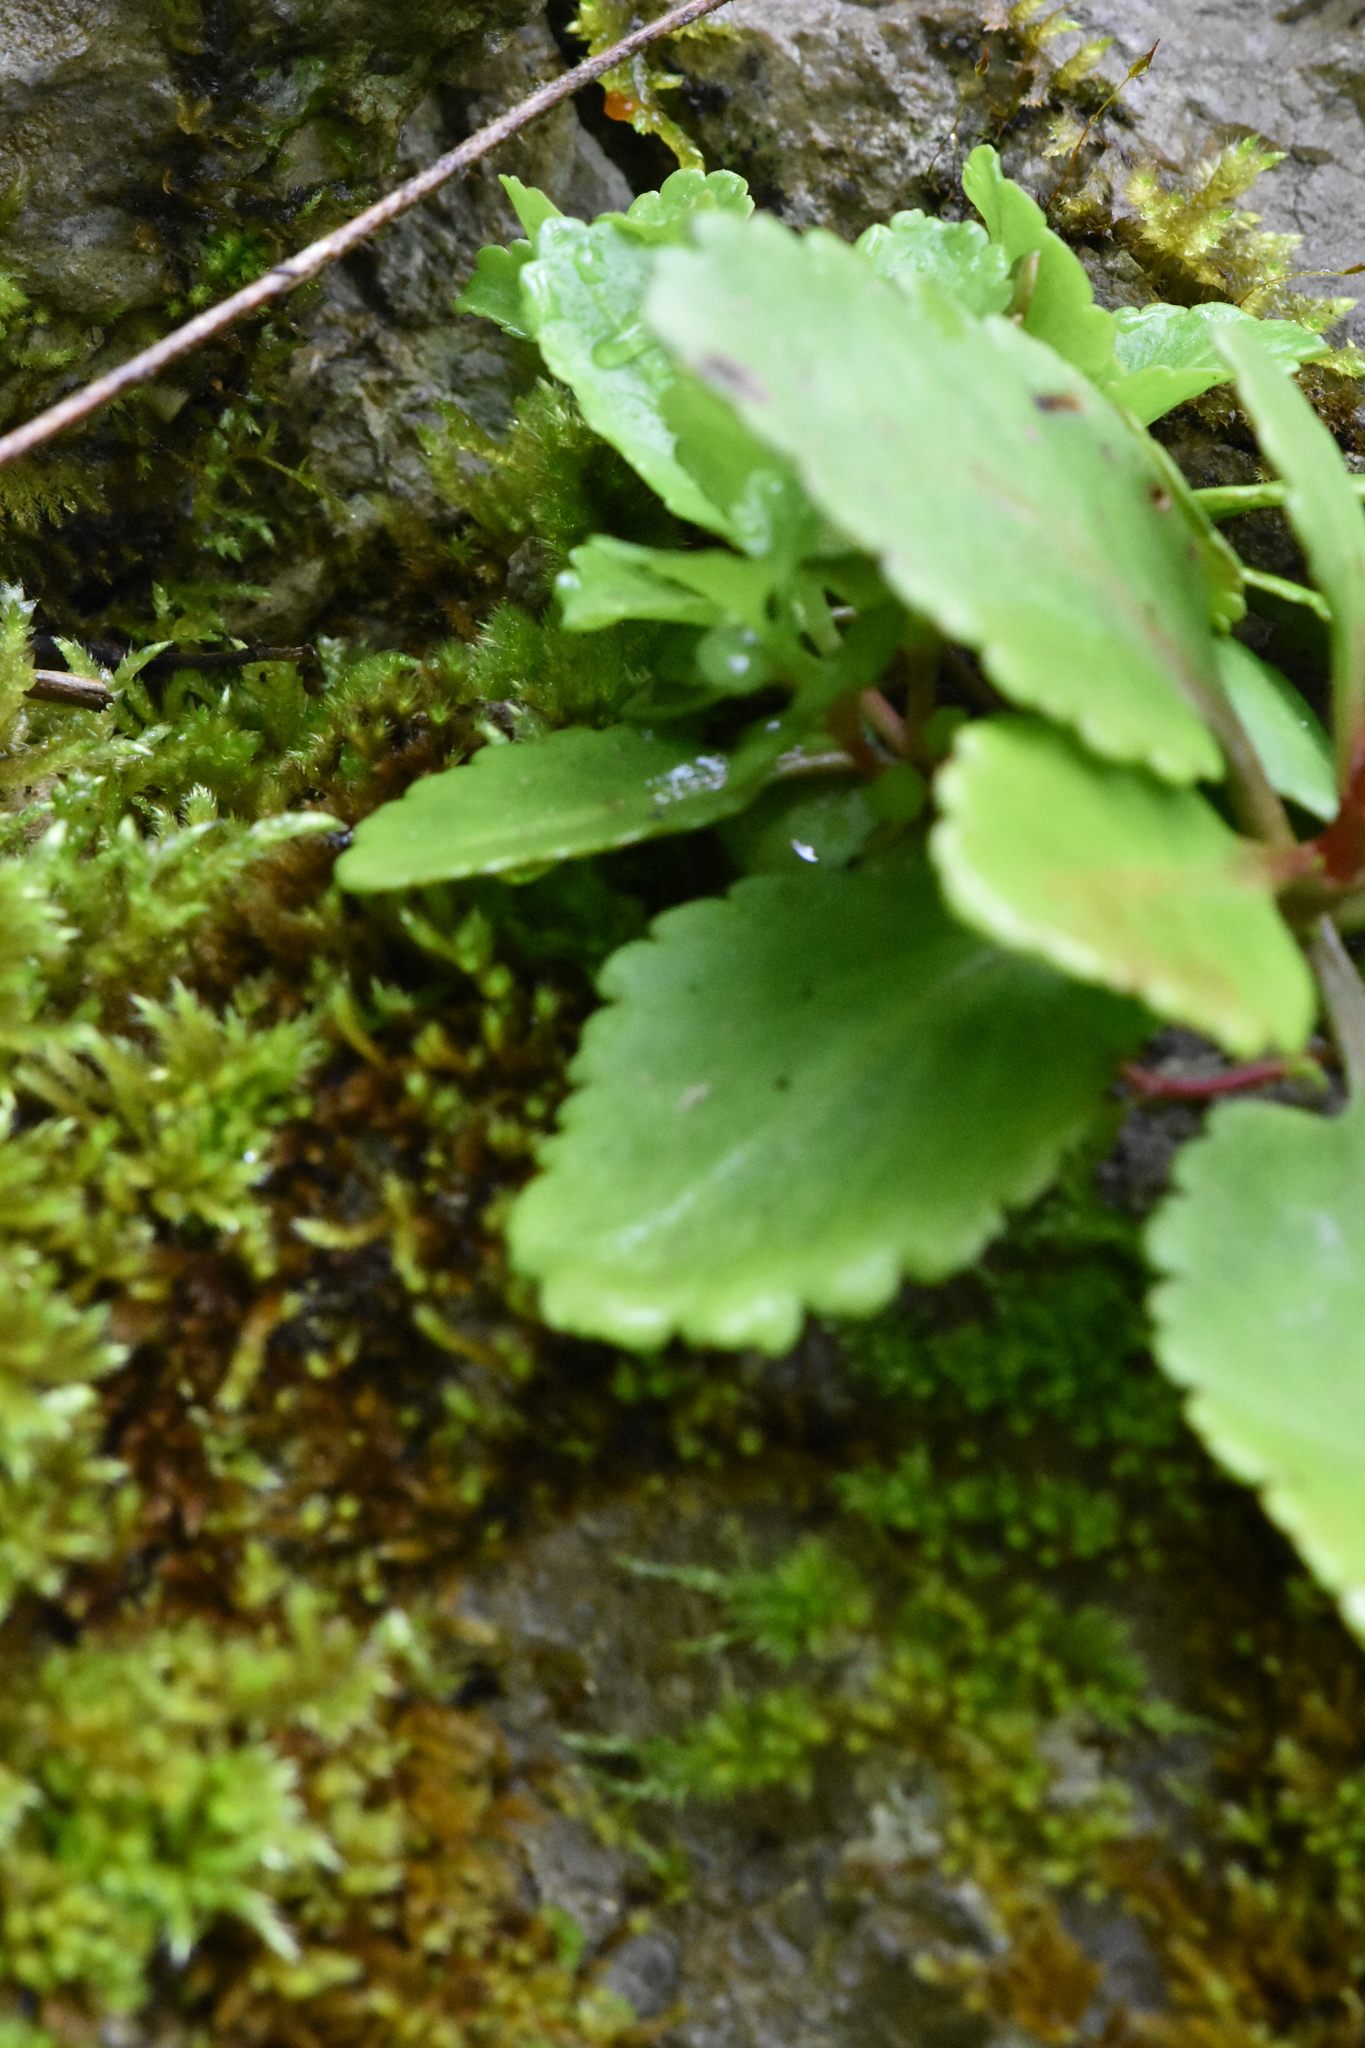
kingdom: Plantae
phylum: Tracheophyta
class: Magnoliopsida
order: Saxifragales
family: Crassulaceae
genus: Umbilicus
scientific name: Umbilicus oppositifolius
